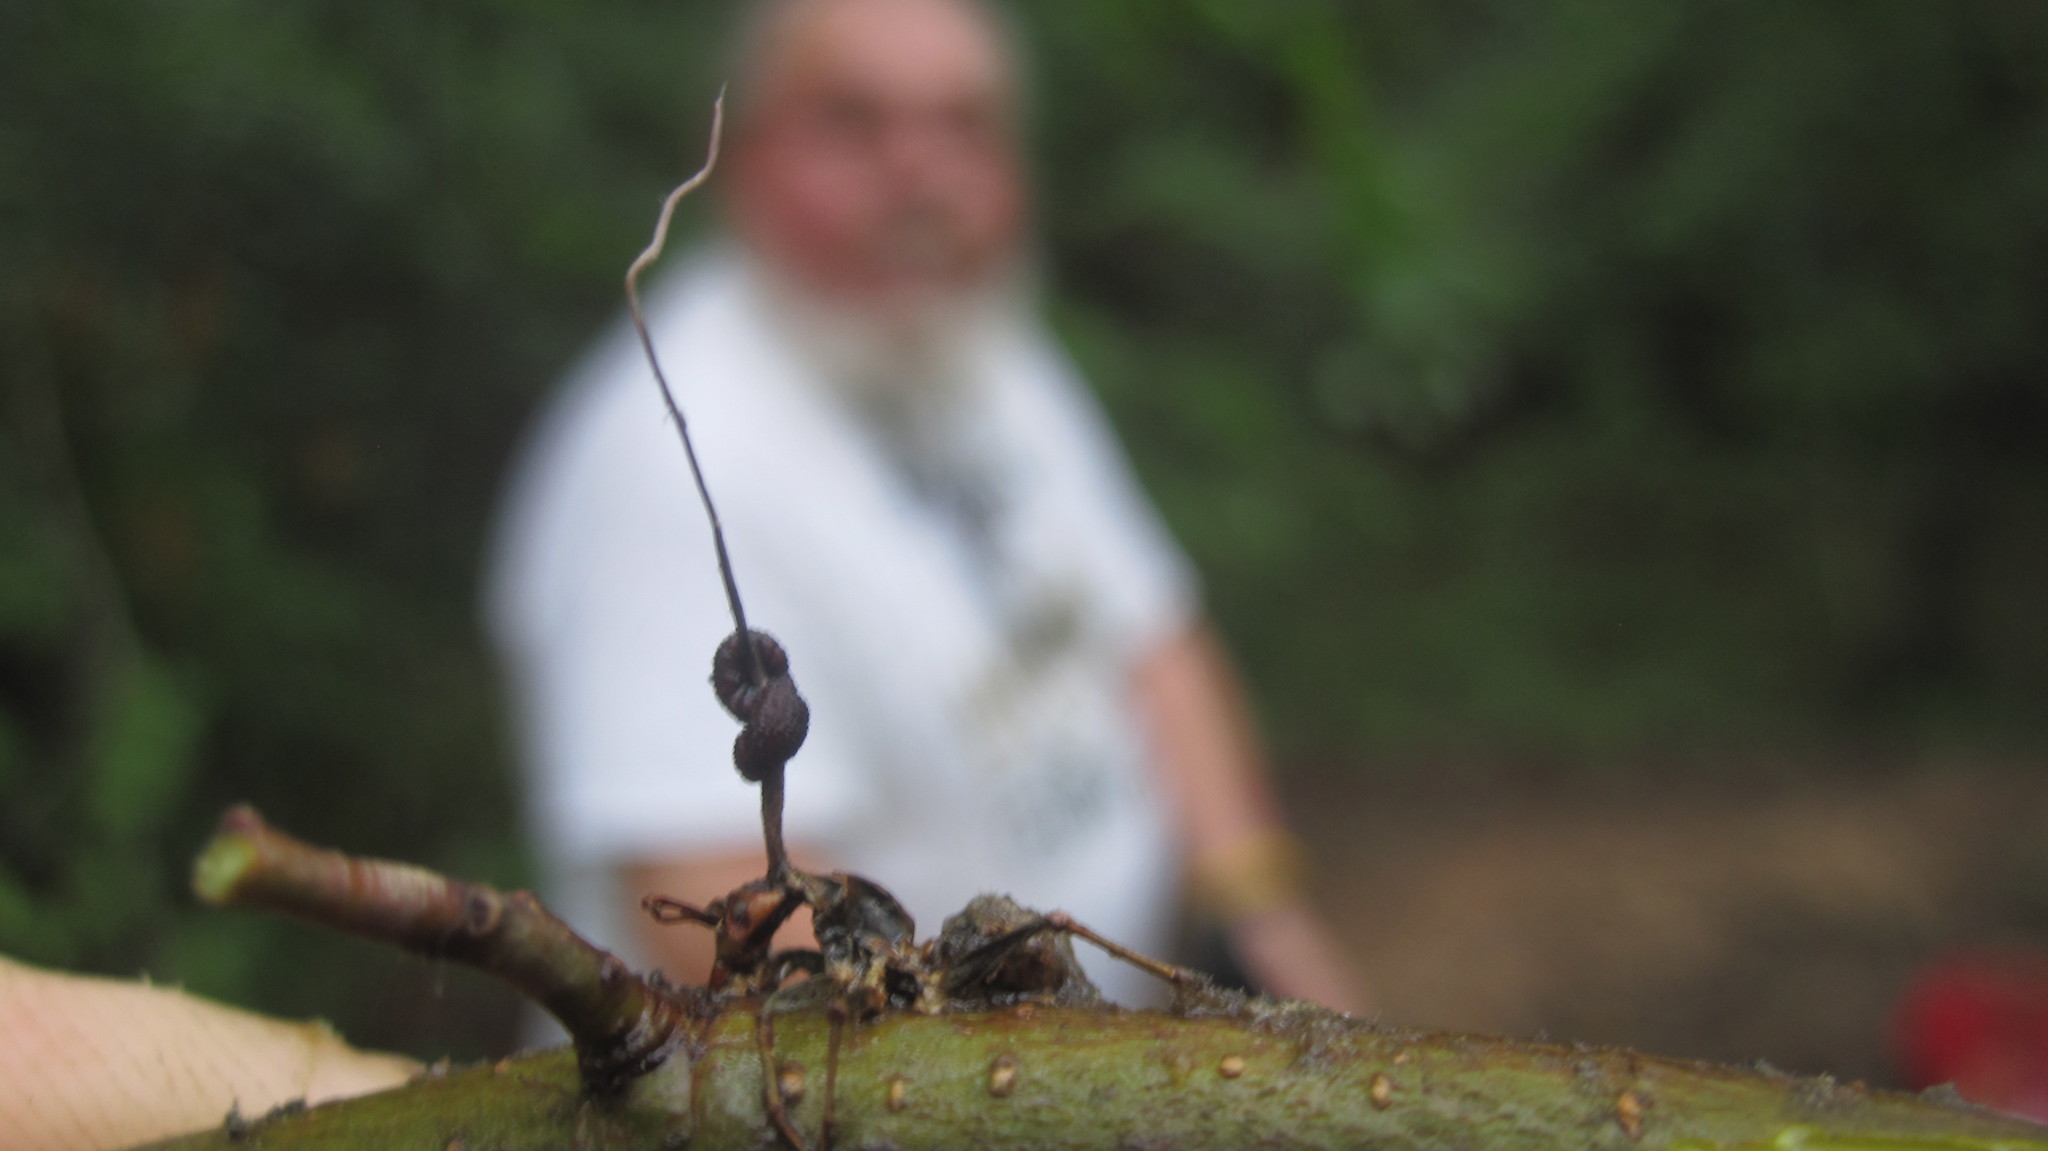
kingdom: Fungi
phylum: Ascomycota
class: Sordariomycetes
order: Hypocreales
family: Ophiocordycipitaceae
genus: Ophiocordyceps
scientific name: Ophiocordyceps kimflemingiae
